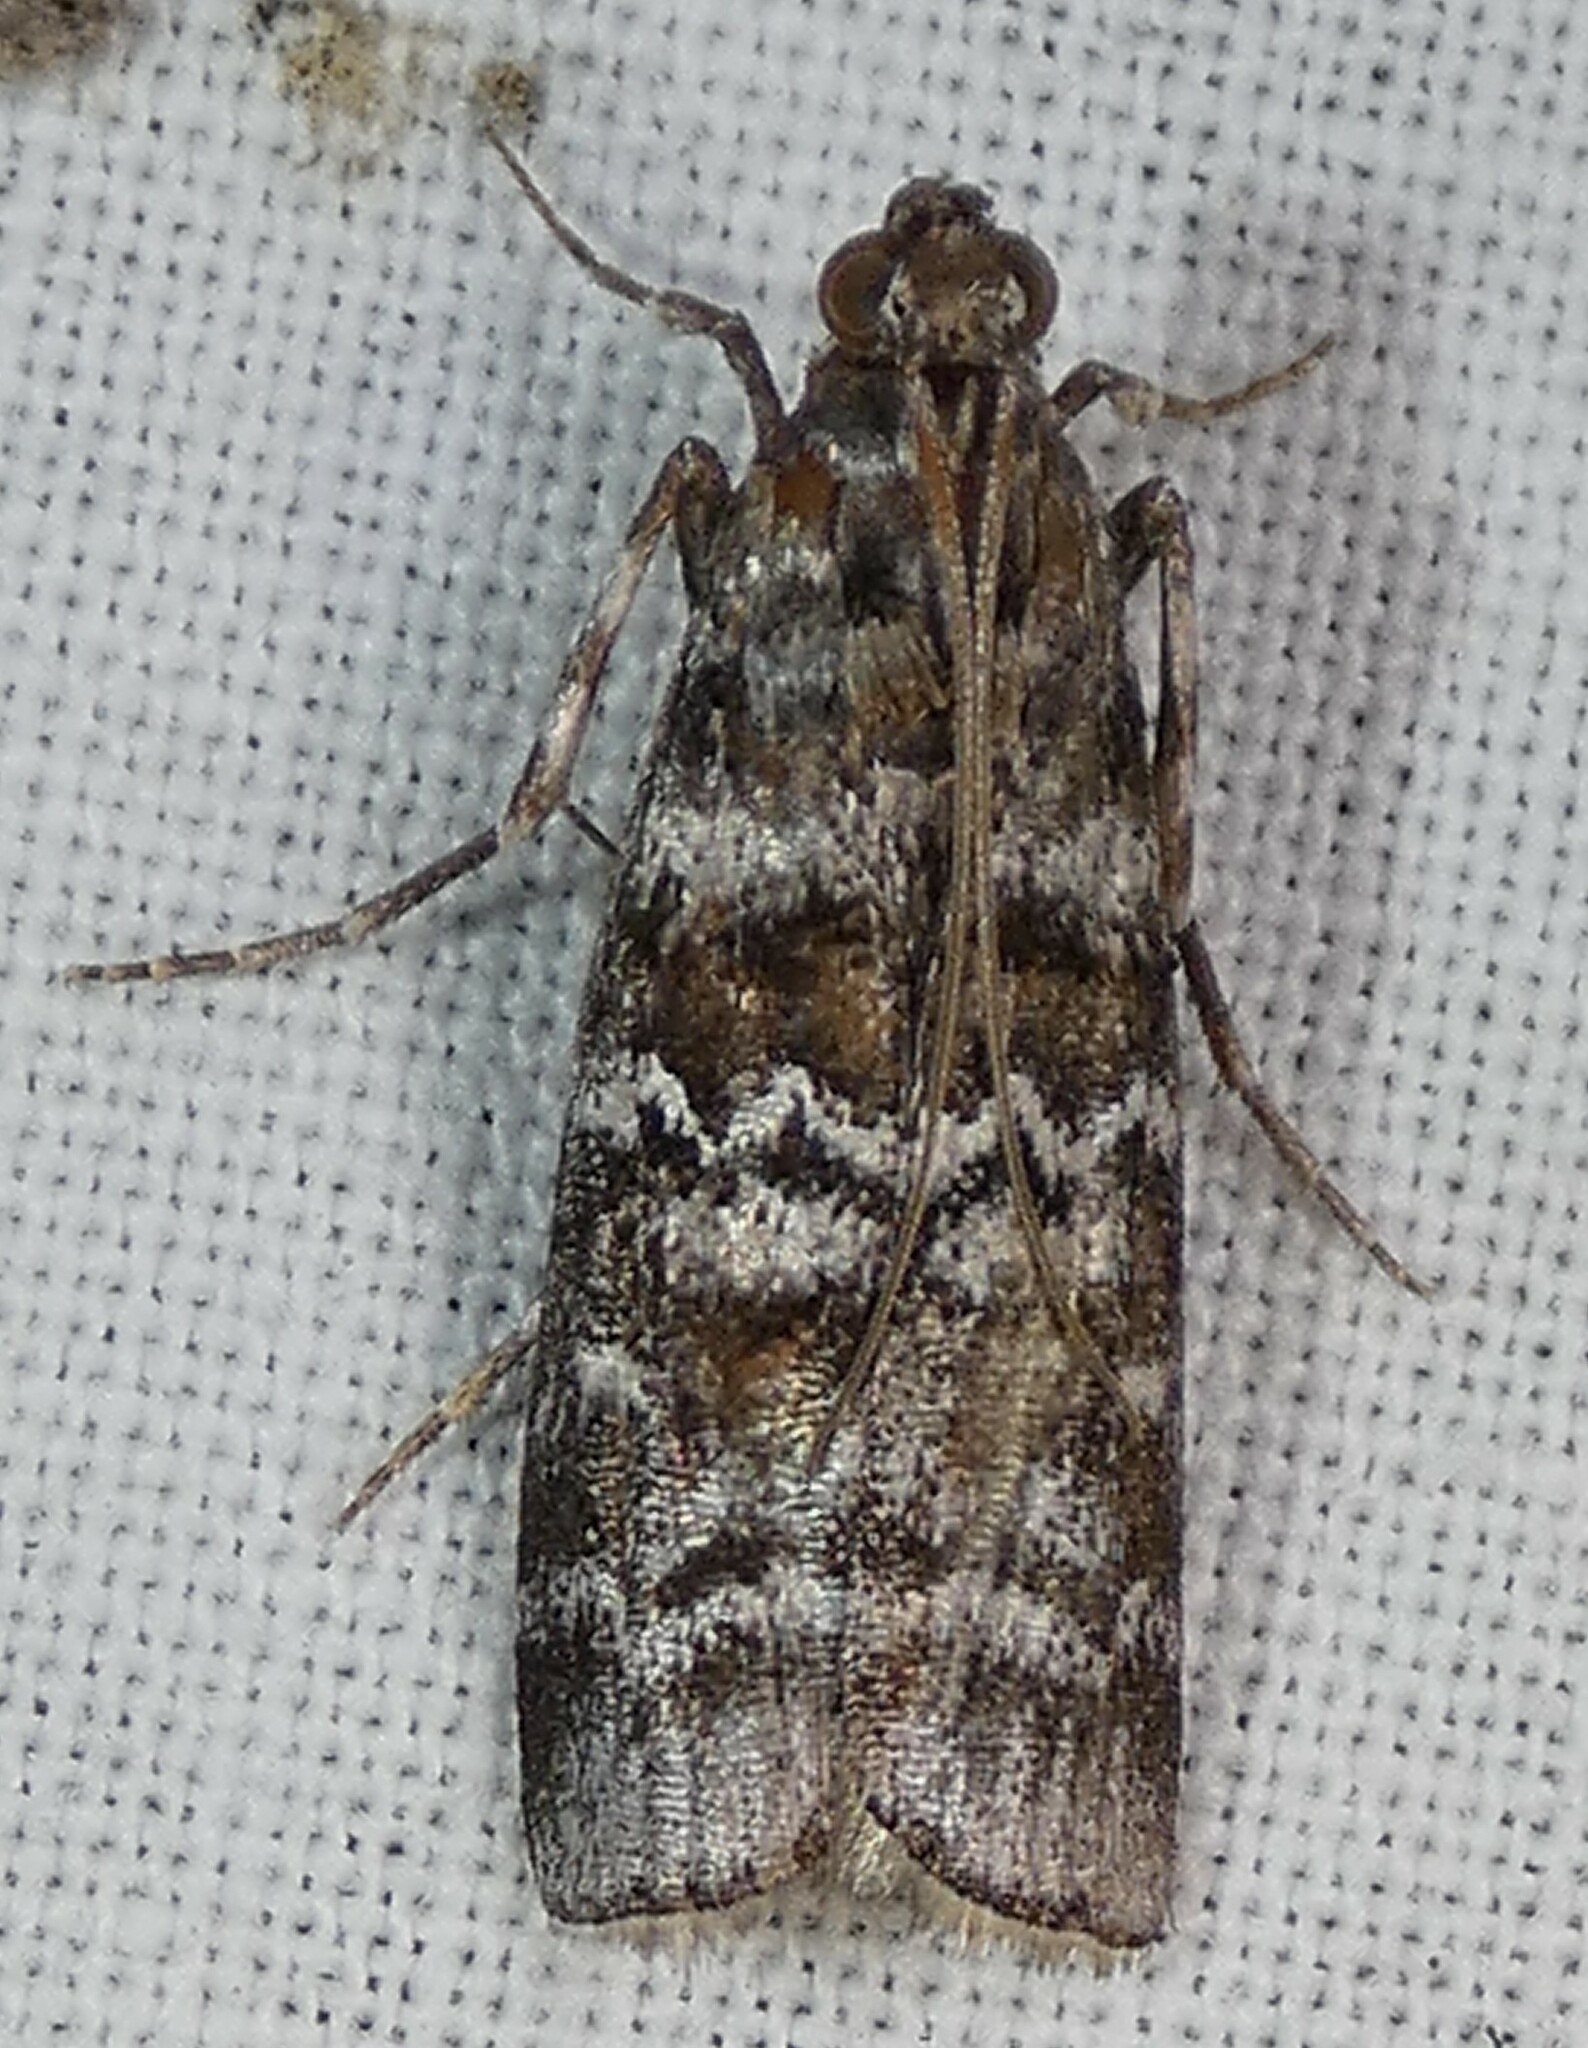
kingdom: Animalia
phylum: Arthropoda
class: Insecta
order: Lepidoptera
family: Pyralidae
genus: Dioryctria
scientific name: Dioryctria amatella
